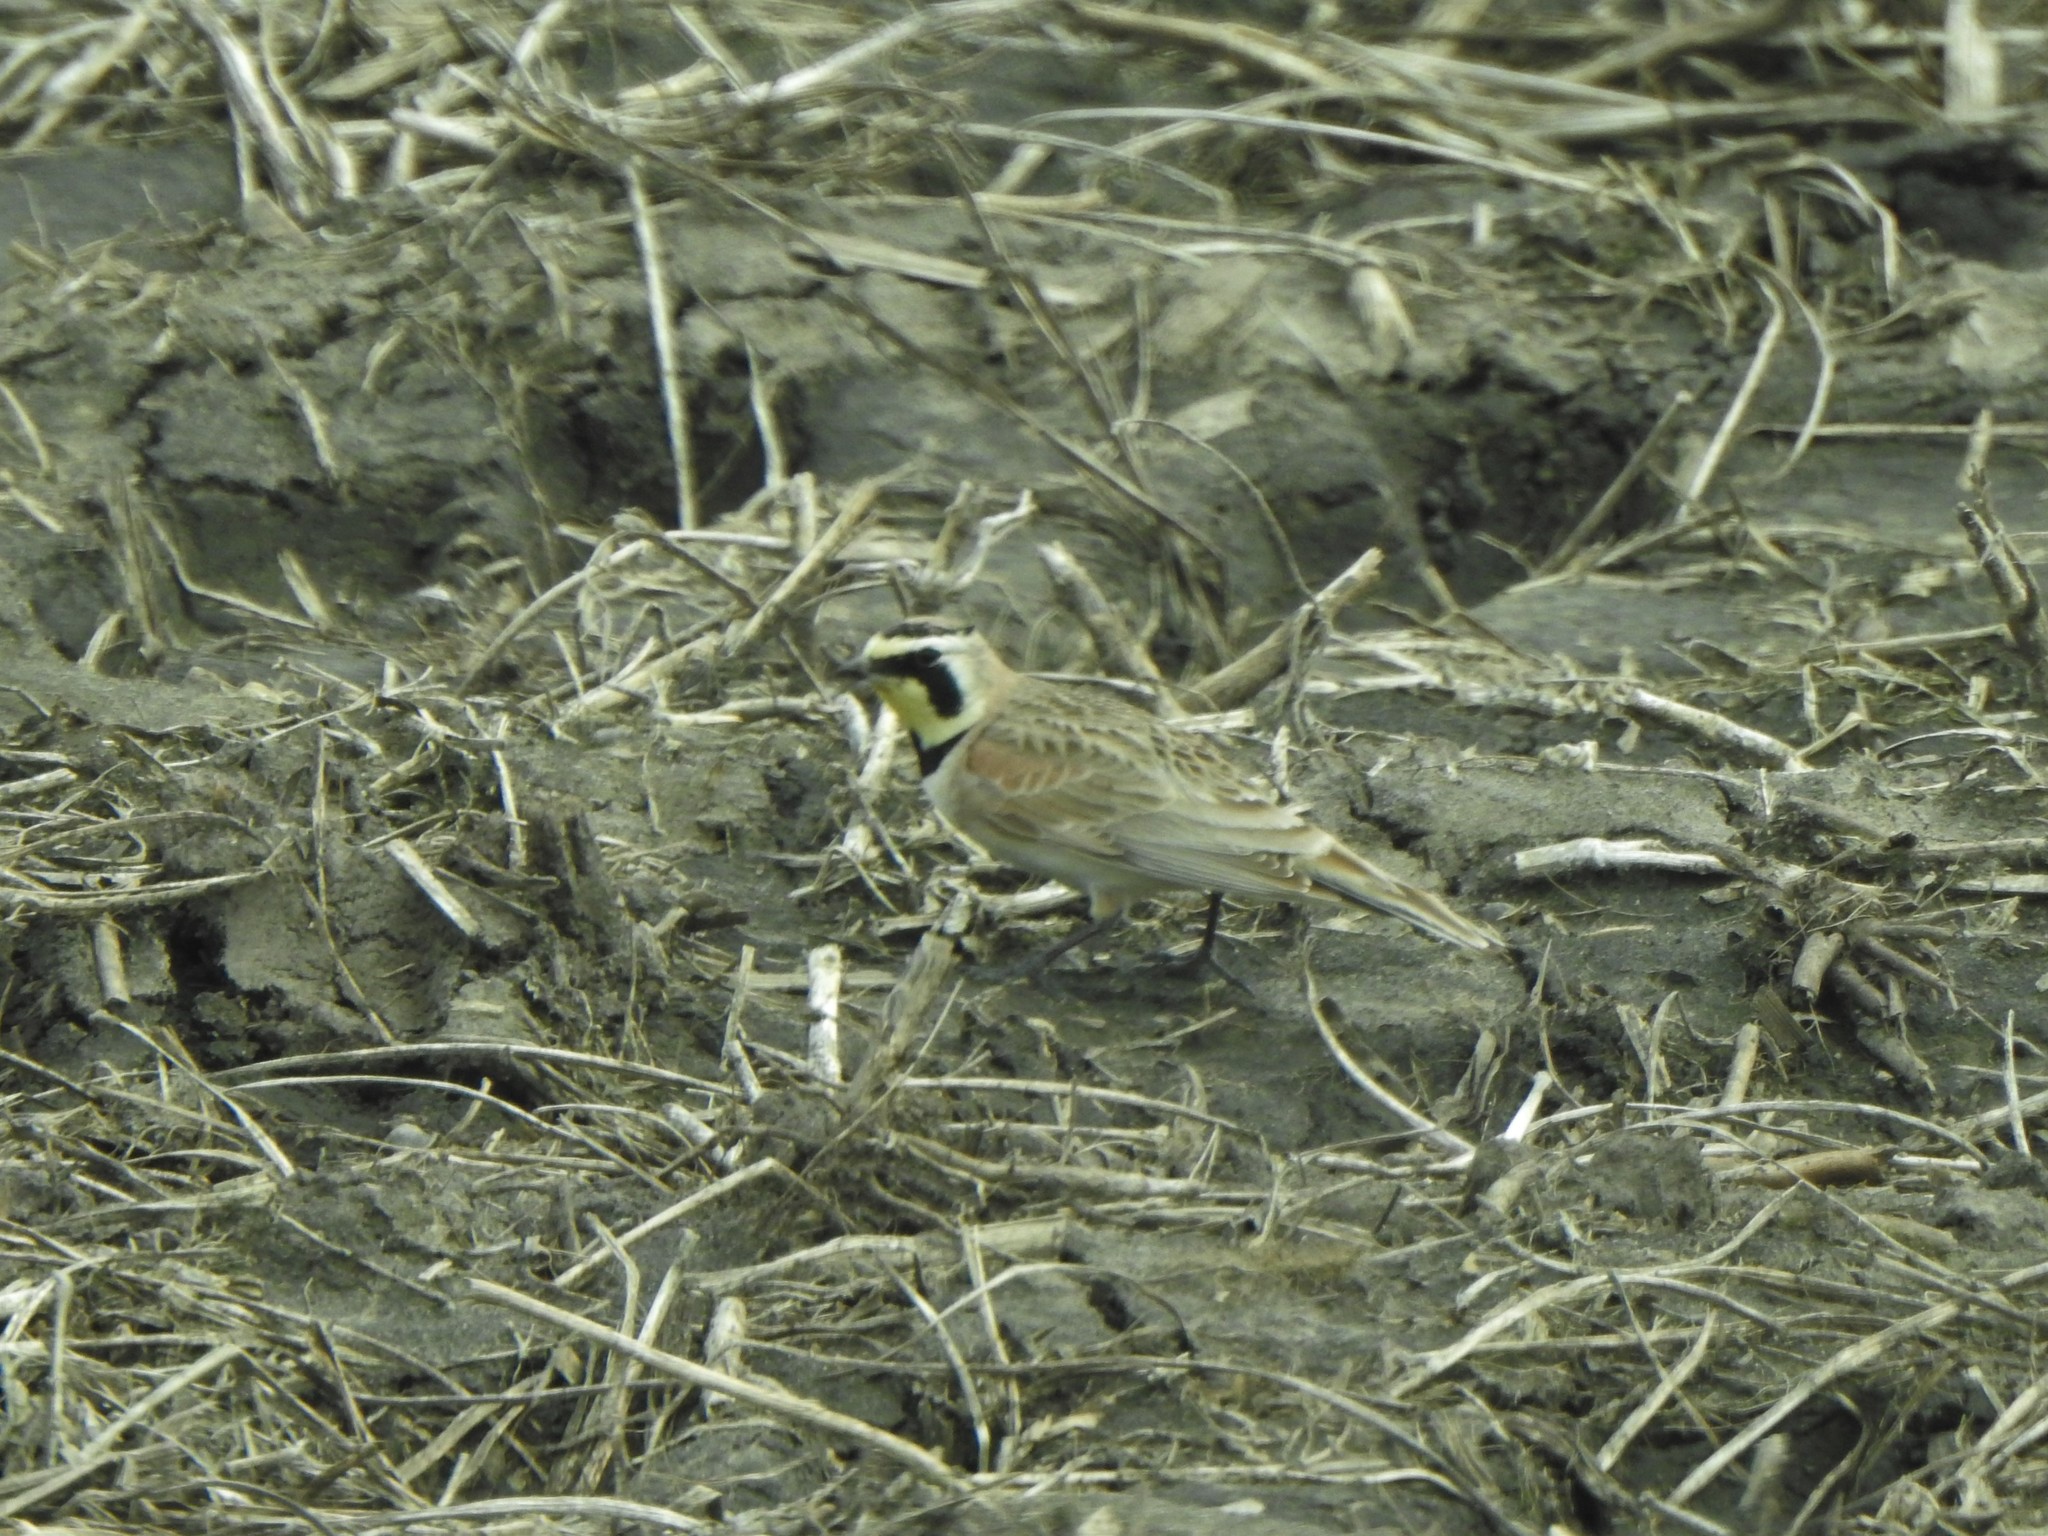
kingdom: Animalia
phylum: Chordata
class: Aves
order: Passeriformes
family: Alaudidae
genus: Eremophila
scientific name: Eremophila alpestris
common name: Horned lark
